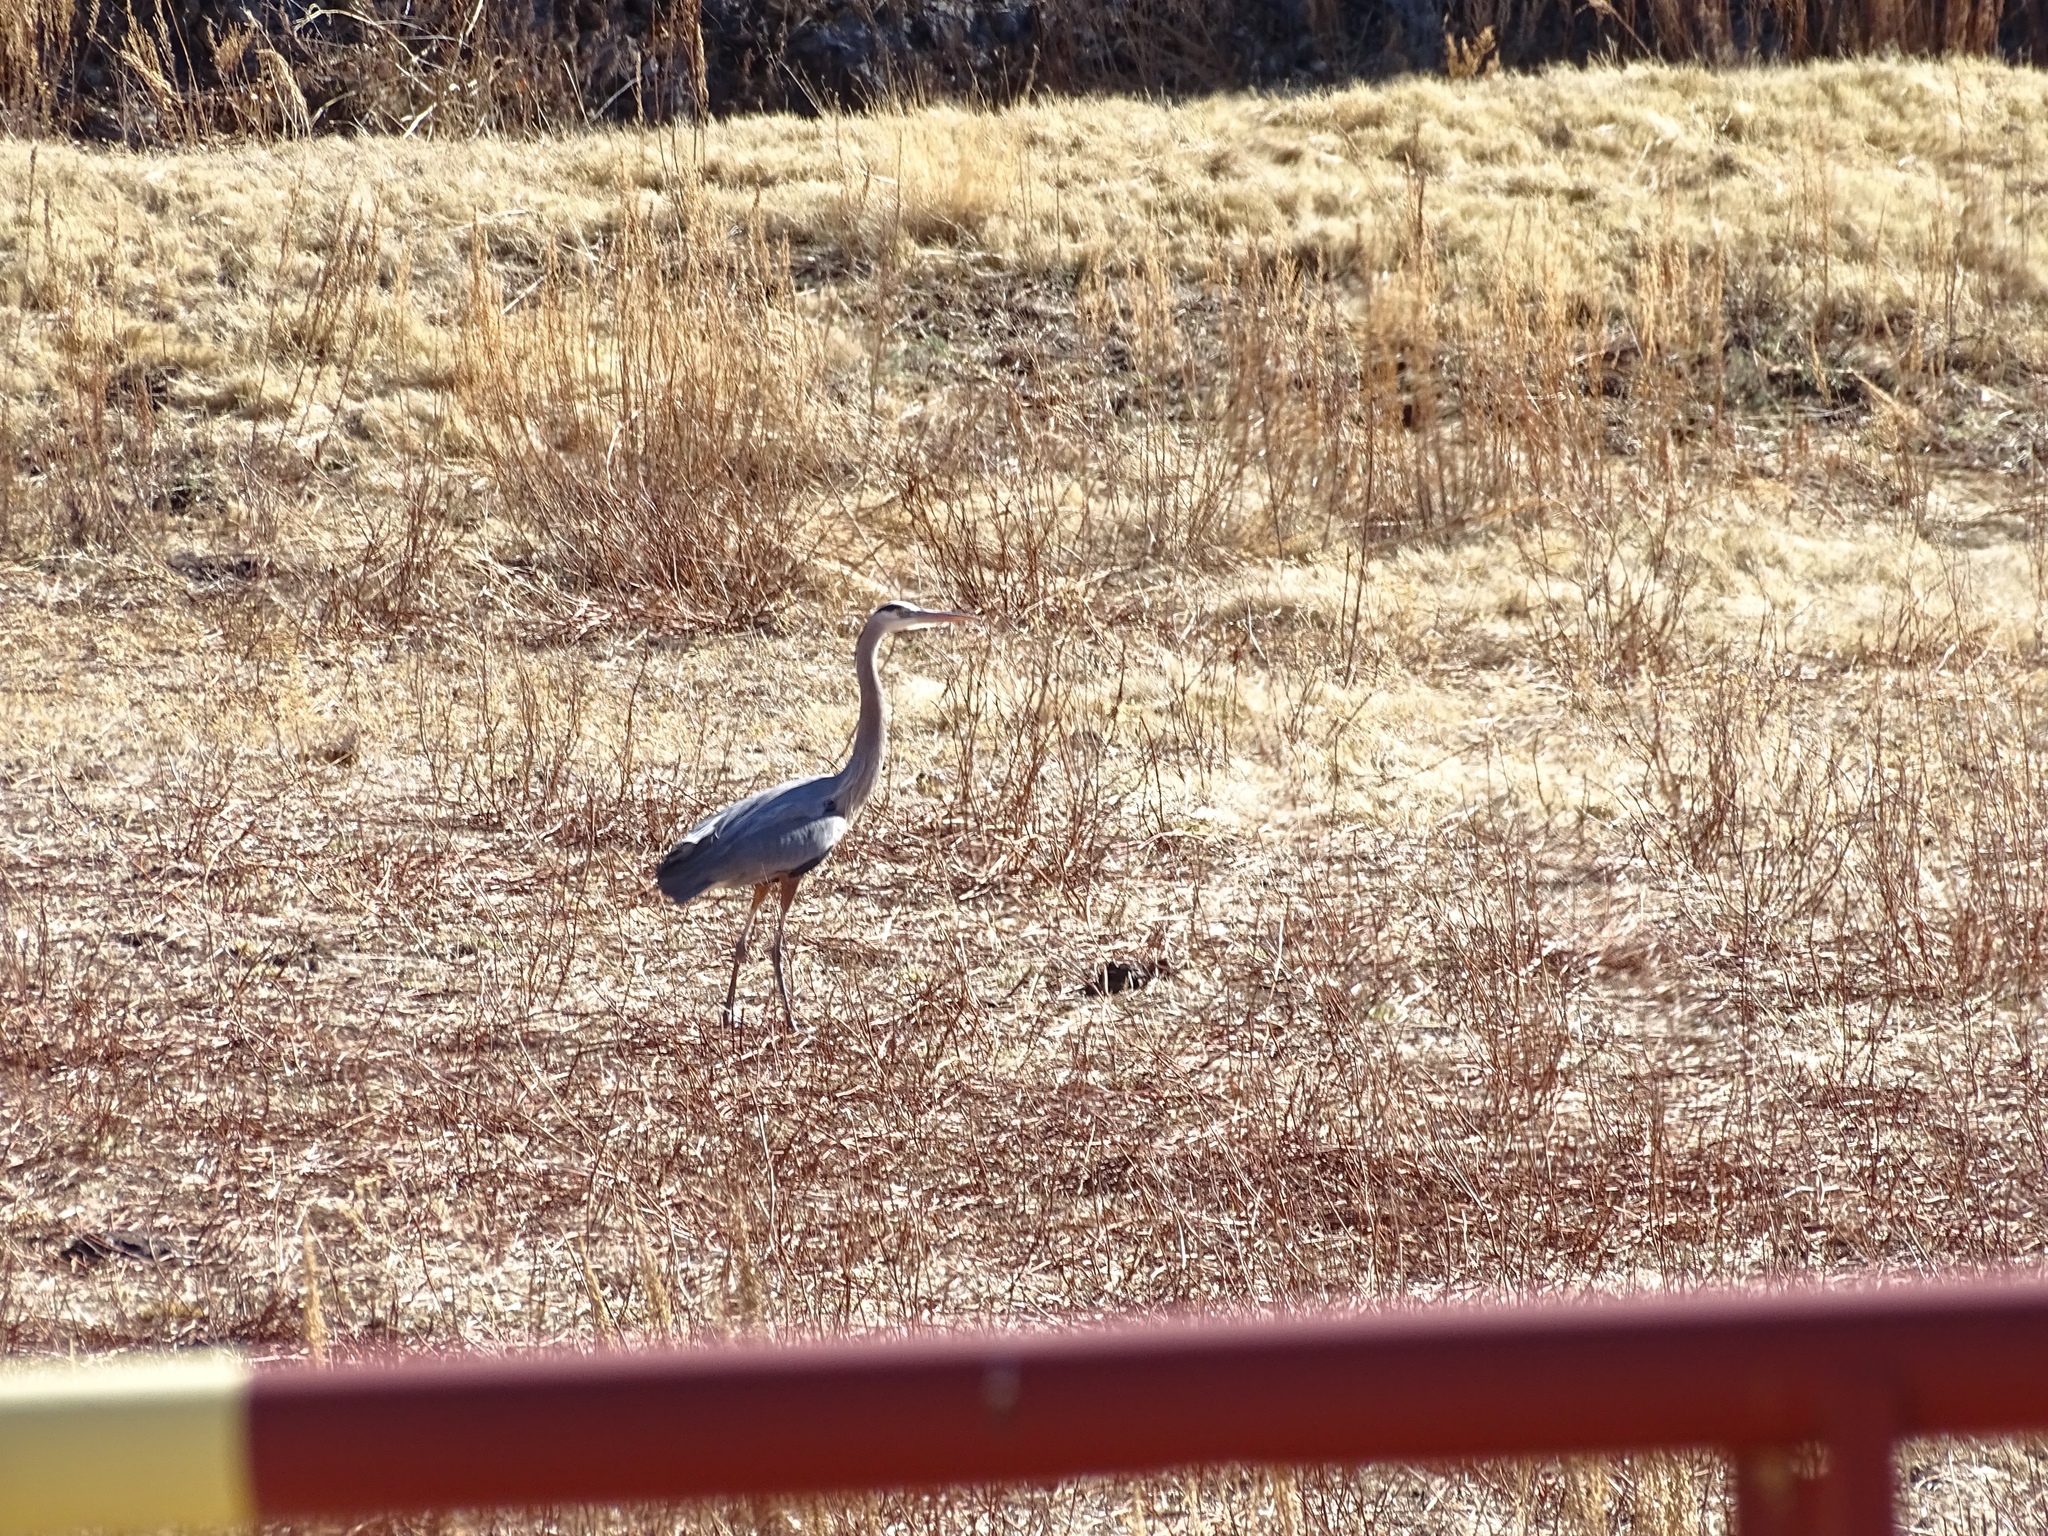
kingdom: Animalia
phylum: Chordata
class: Aves
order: Pelecaniformes
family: Ardeidae
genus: Ardea
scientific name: Ardea herodias
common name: Great blue heron
